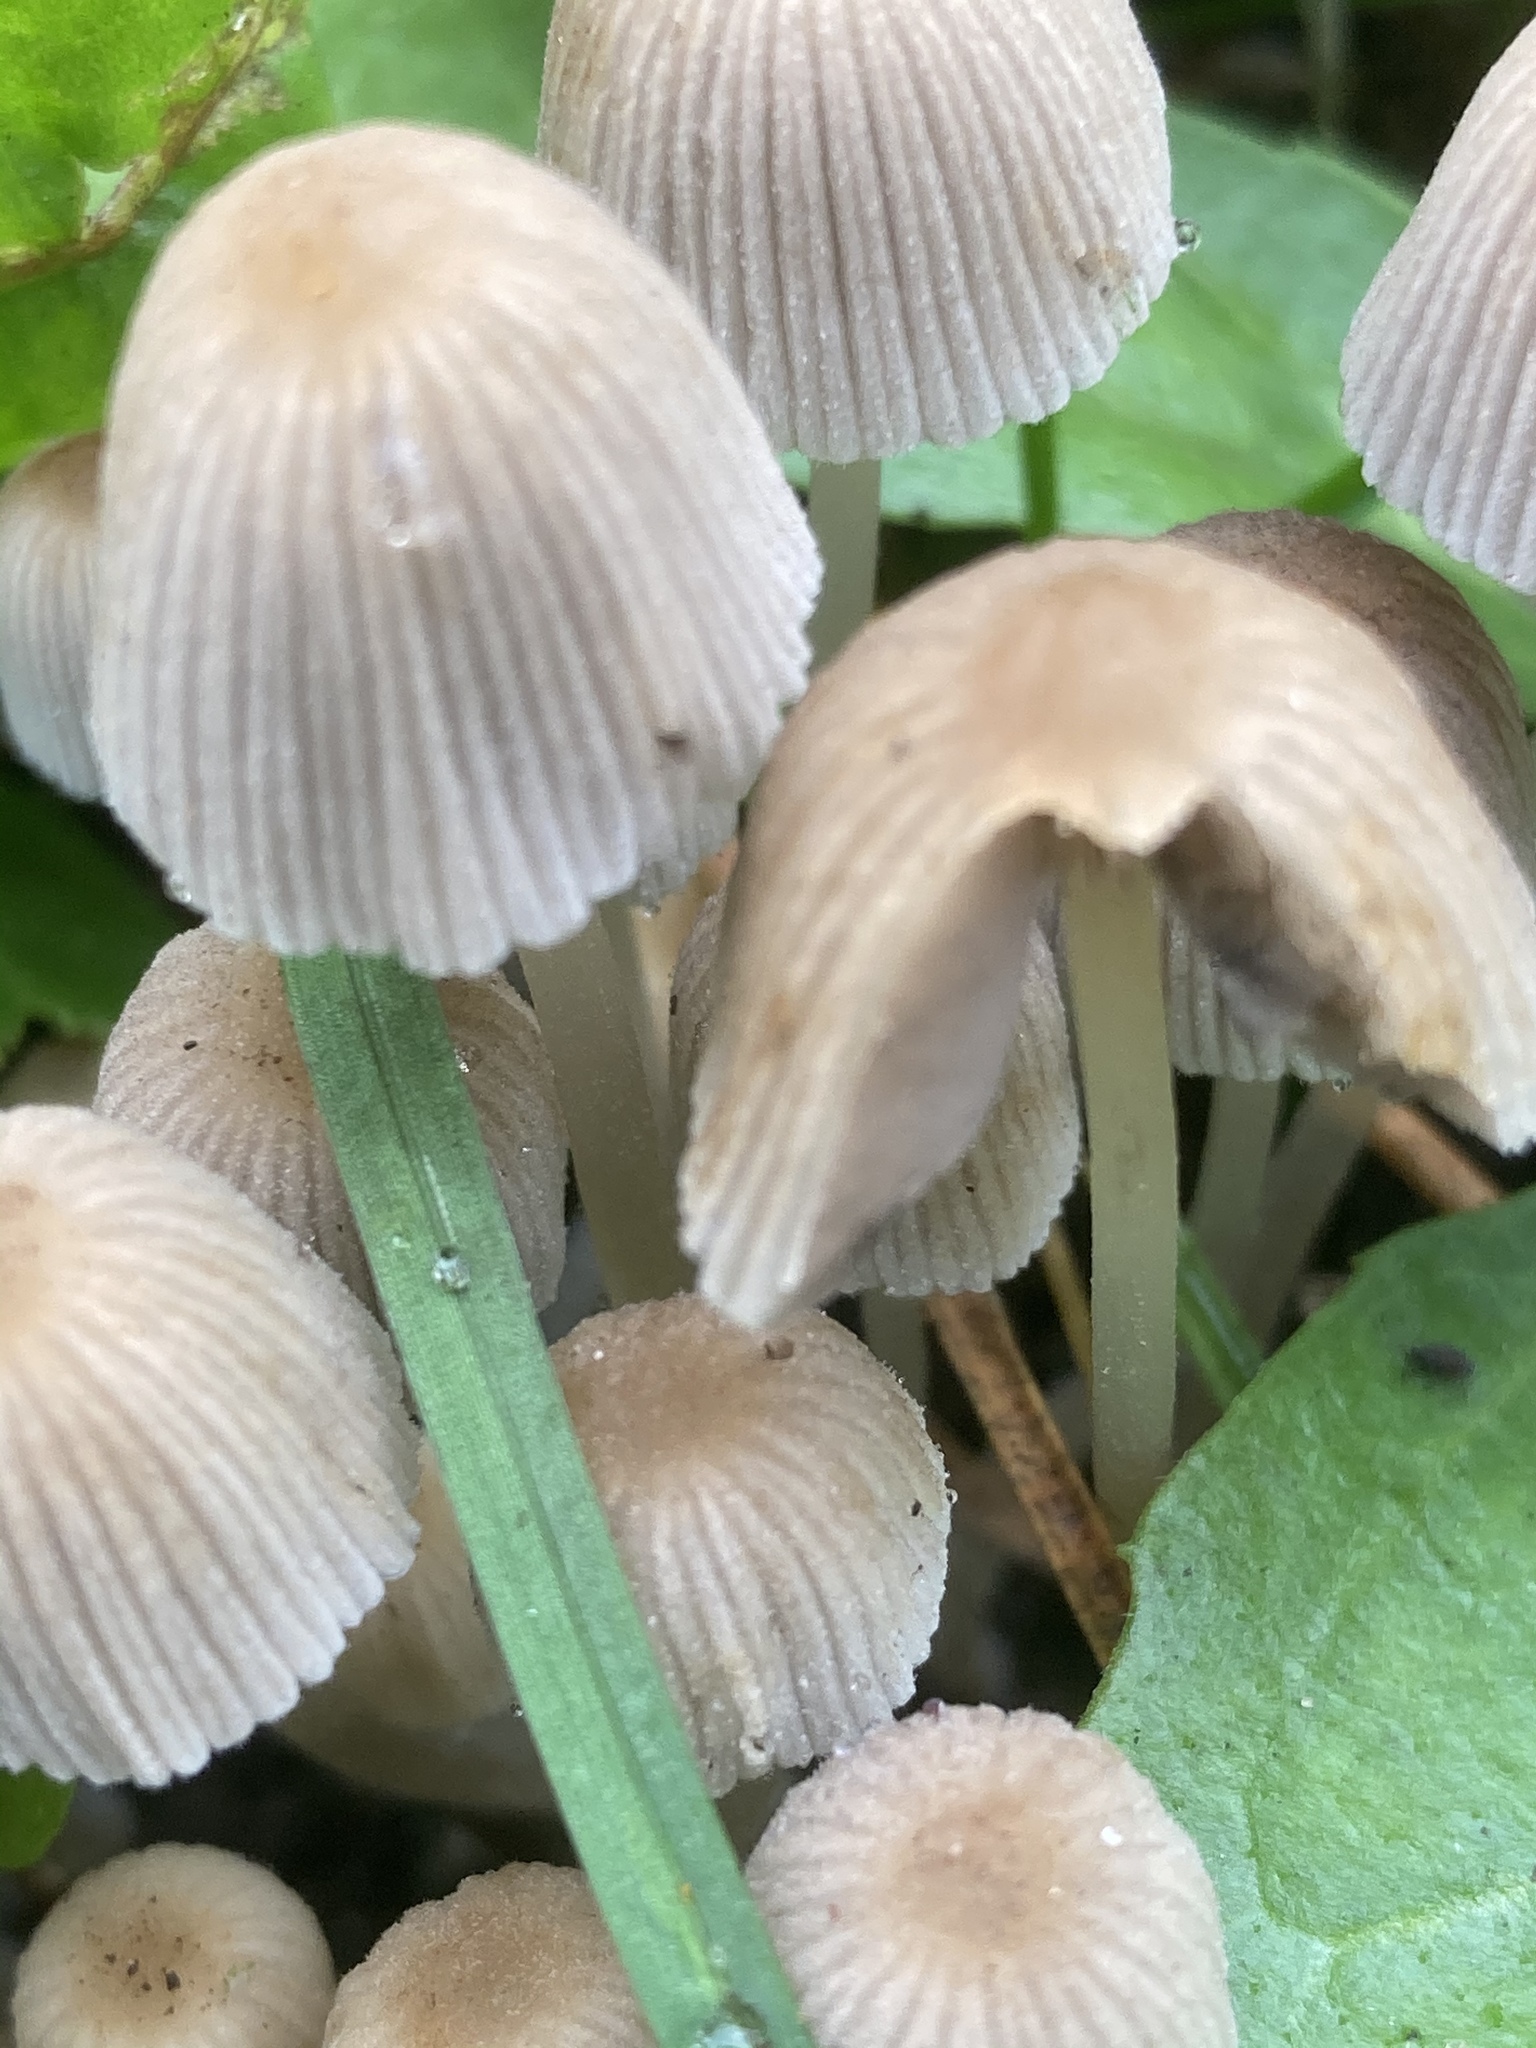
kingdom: Fungi
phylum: Basidiomycota
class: Agaricomycetes
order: Agaricales
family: Psathyrellaceae
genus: Coprinellus
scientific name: Coprinellus disseminatus
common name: Fairies' bonnets
